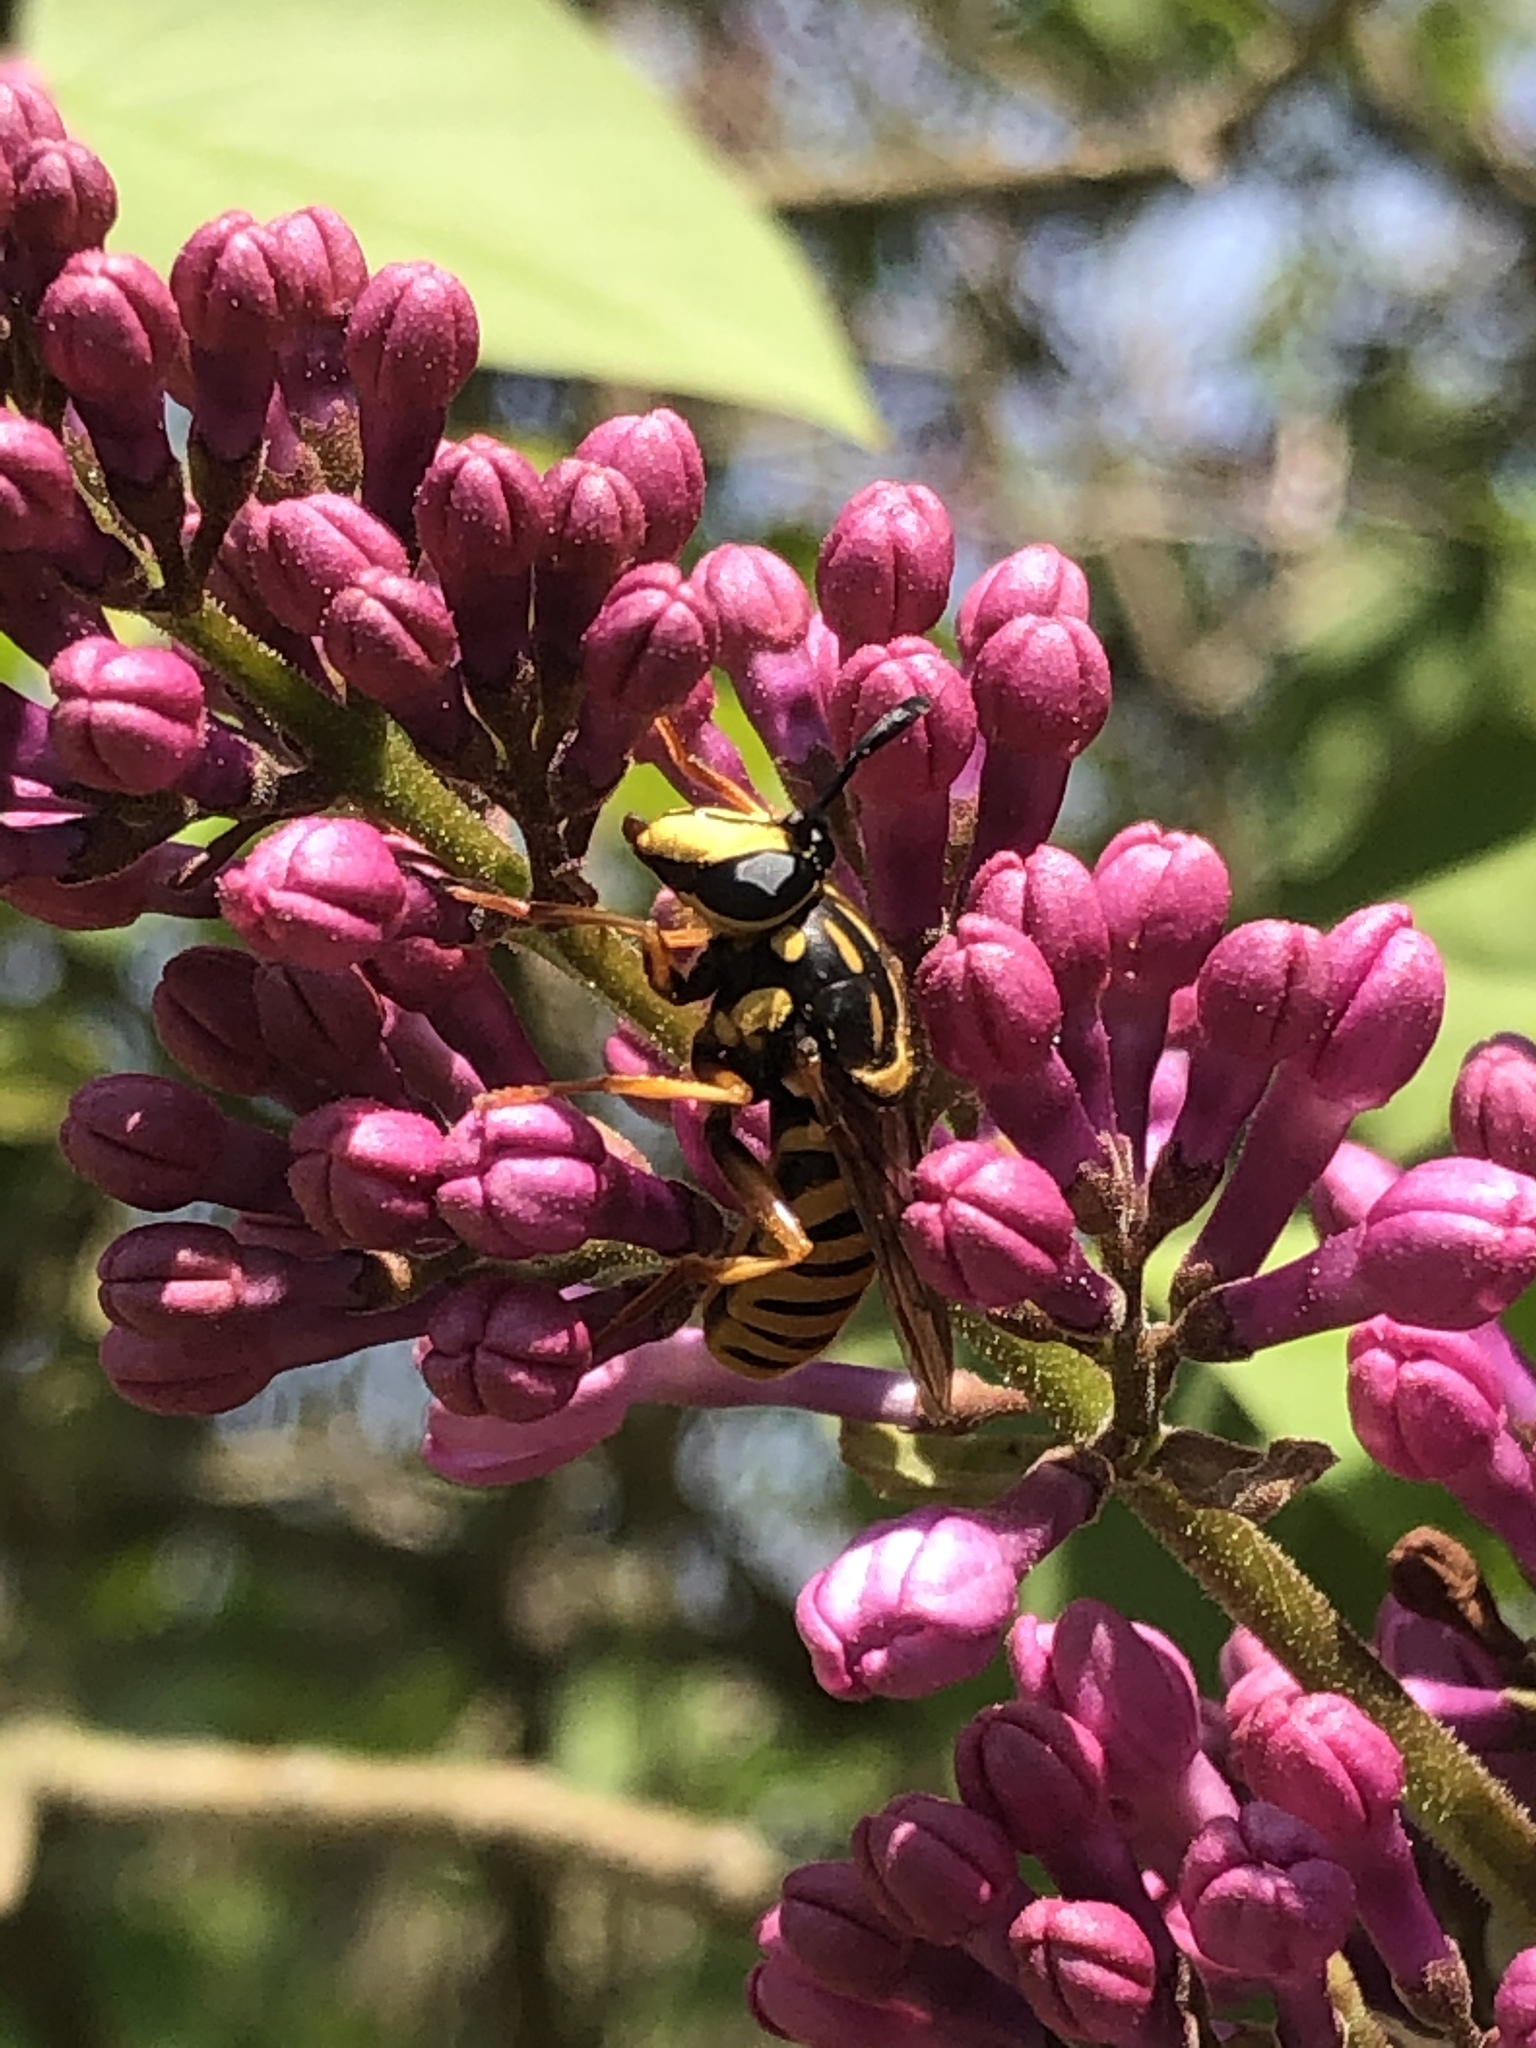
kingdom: Animalia
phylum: Arthropoda
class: Insecta
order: Diptera
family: Syrphidae
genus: Sphecomyia
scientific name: Sphecomyia vittata
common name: Long-horned yellowjacket fly
